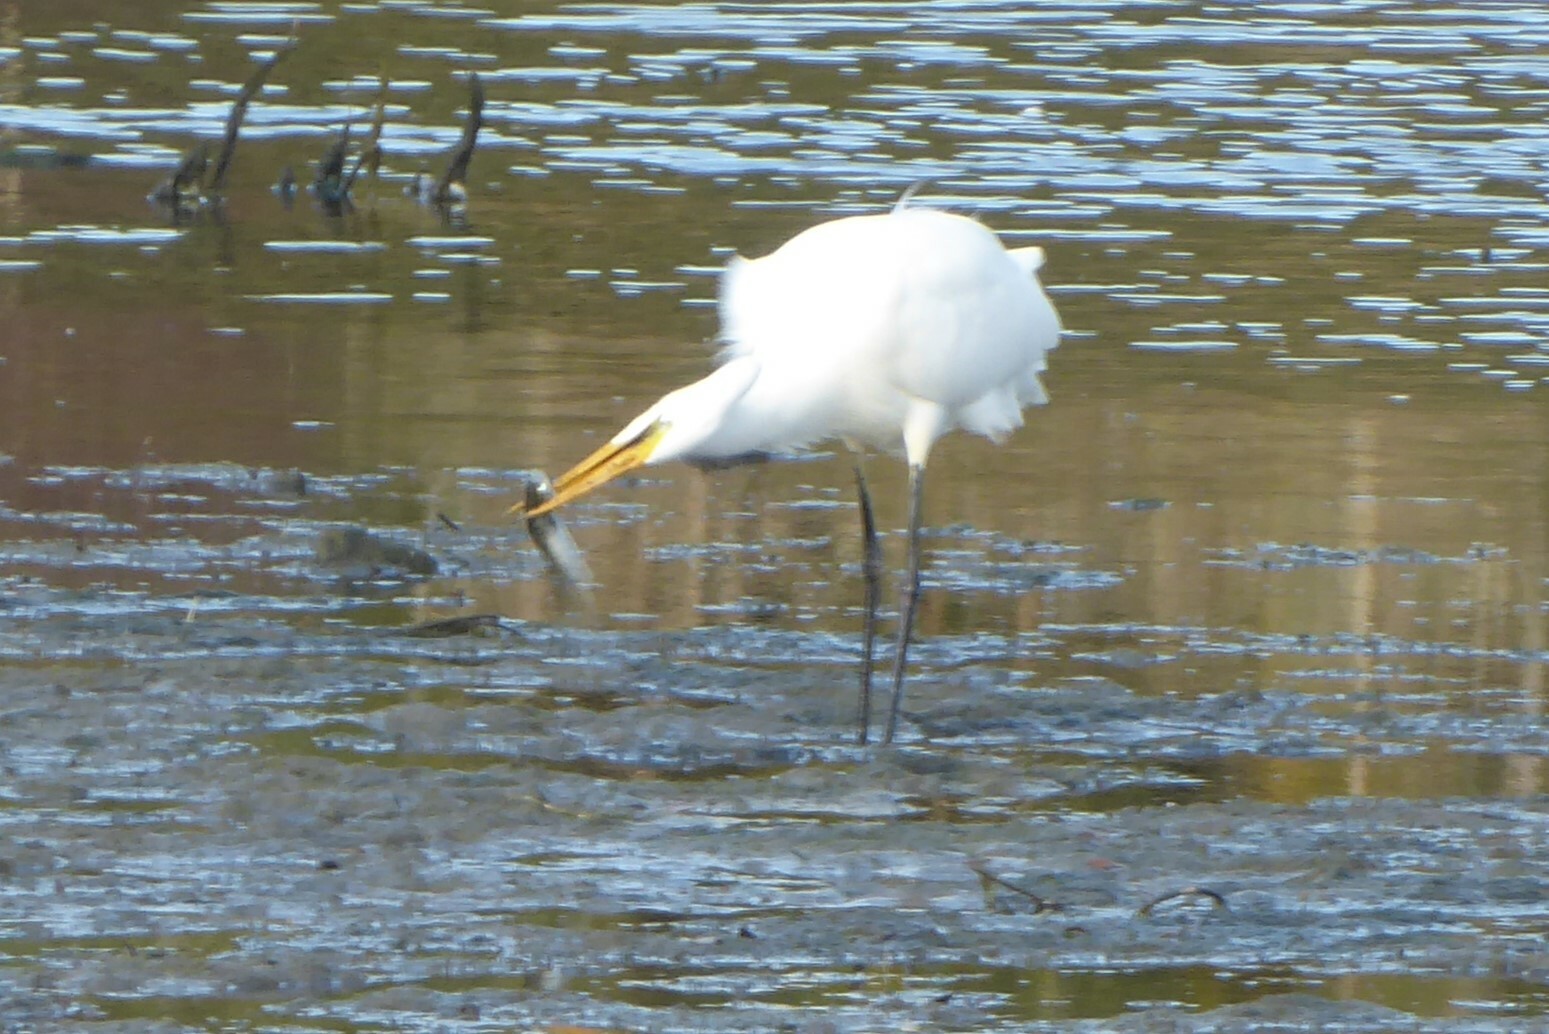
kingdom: Animalia
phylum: Chordata
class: Aves
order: Pelecaniformes
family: Ardeidae
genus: Ardea
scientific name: Ardea modesta
